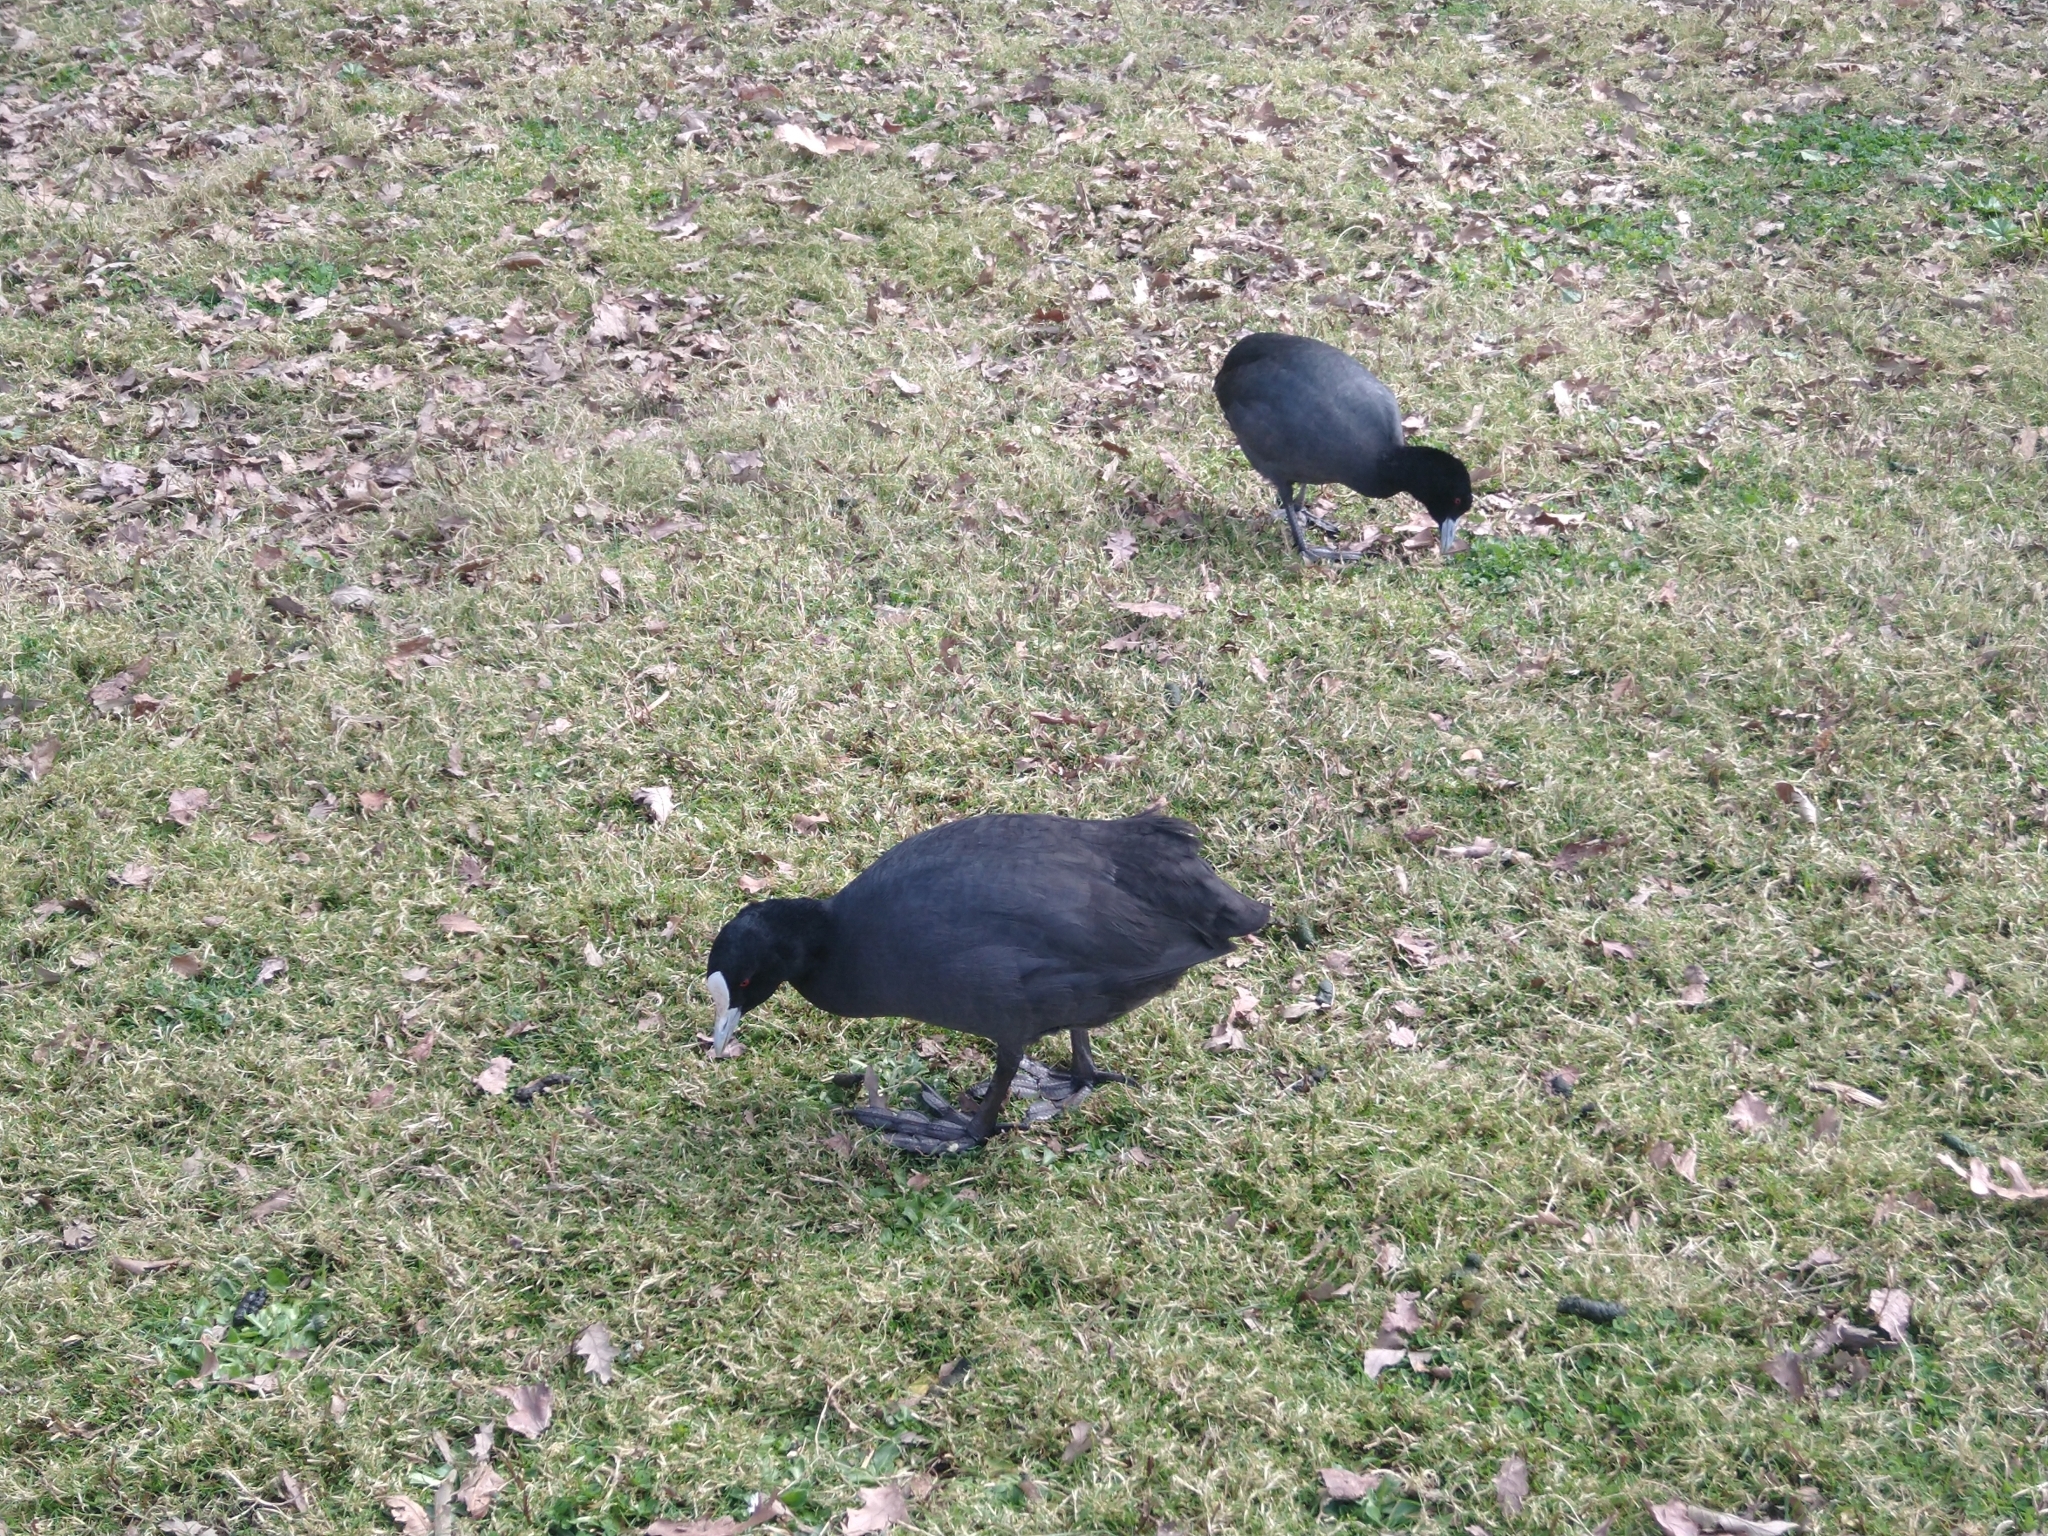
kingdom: Animalia
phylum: Chordata
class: Aves
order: Gruiformes
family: Rallidae
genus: Fulica
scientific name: Fulica atra
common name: Eurasian coot
